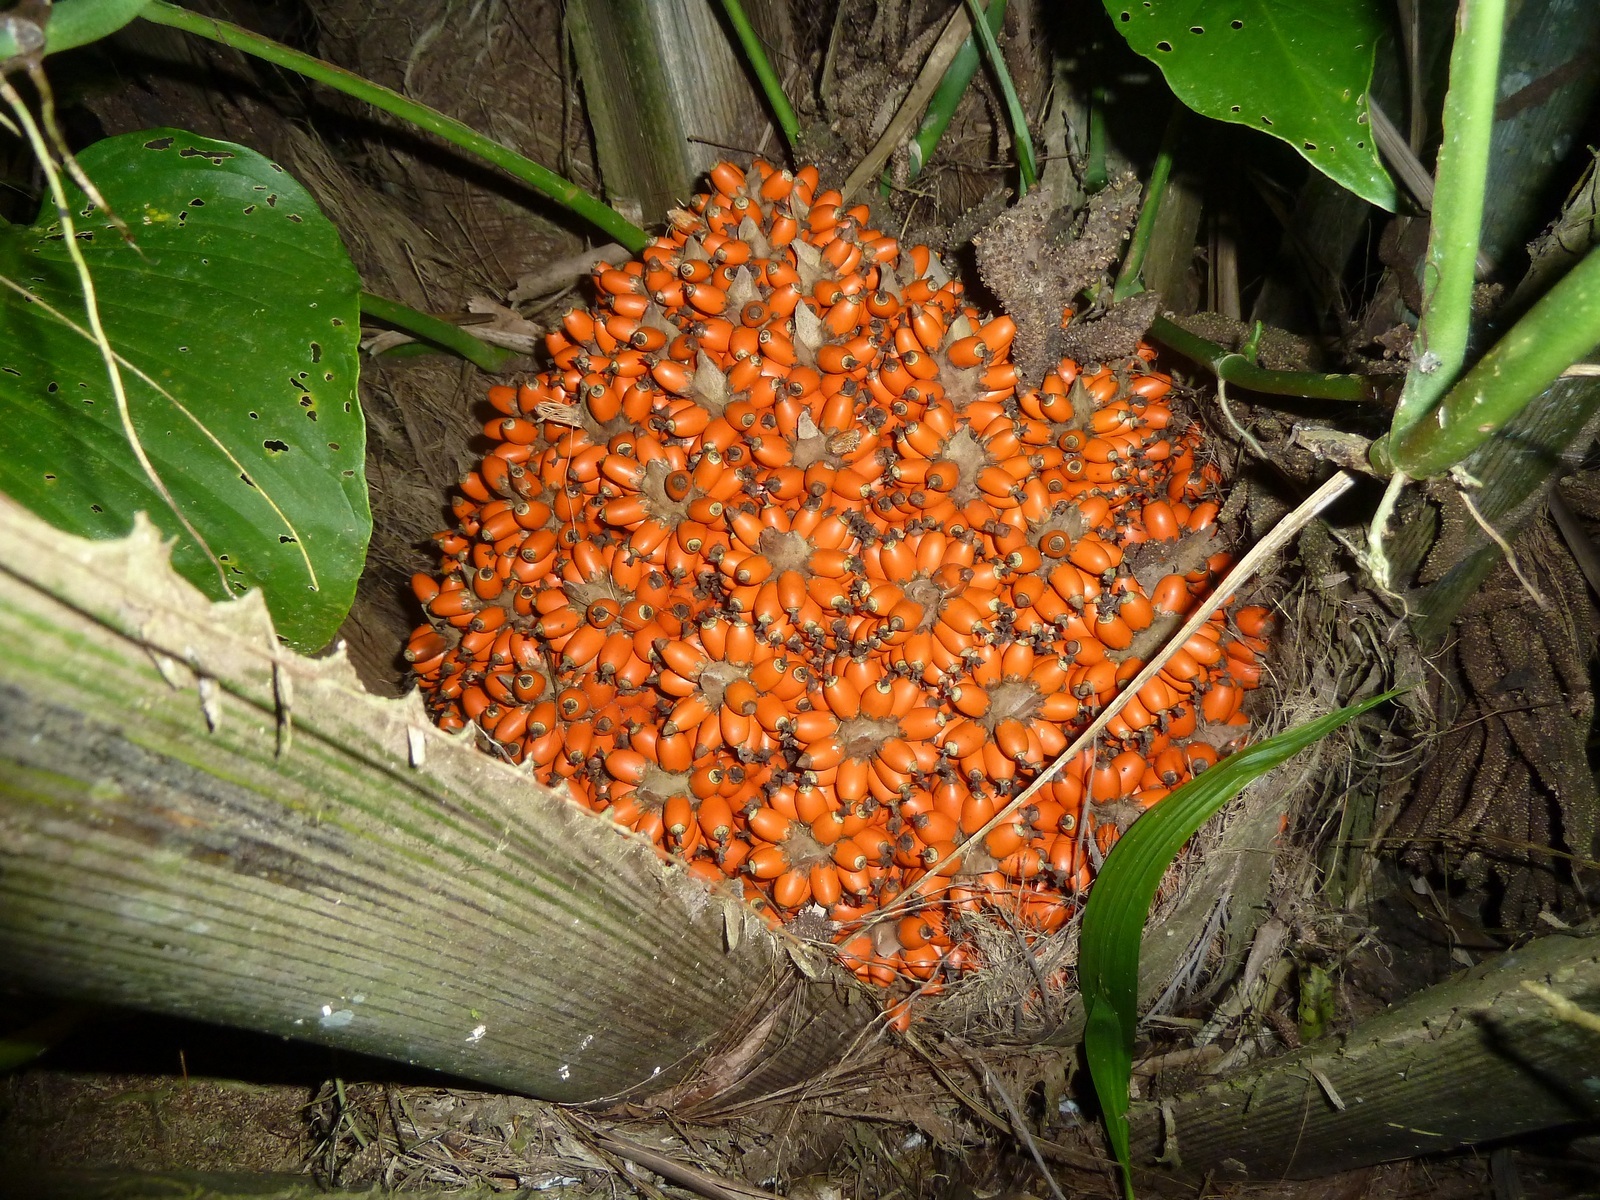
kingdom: Plantae
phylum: Tracheophyta
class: Liliopsida
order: Arecales
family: Arecaceae
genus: Elaeis
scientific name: Elaeis oleifera
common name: American oil palm
